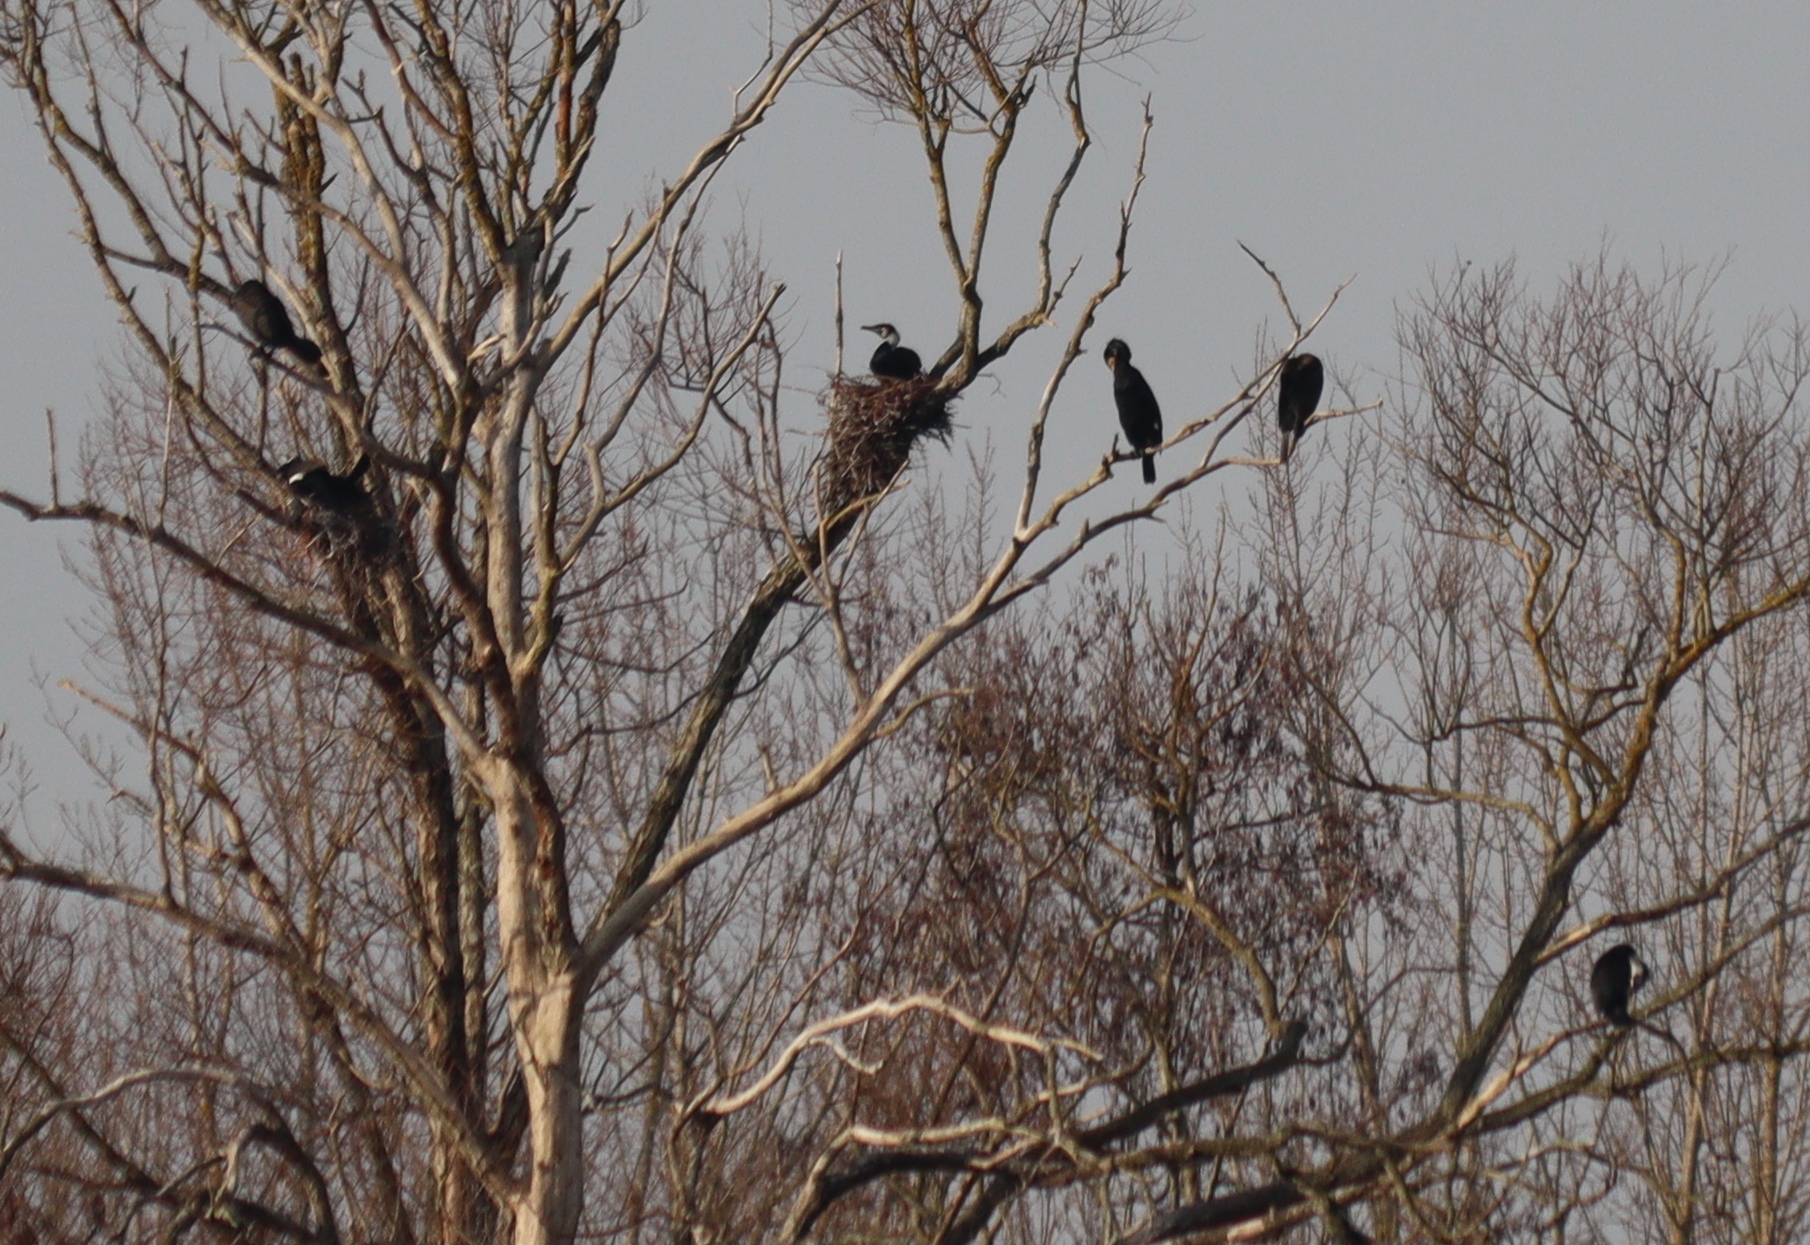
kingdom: Animalia
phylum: Chordata
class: Aves
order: Suliformes
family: Phalacrocoracidae
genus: Phalacrocorax
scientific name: Phalacrocorax carbo
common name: Great cormorant
